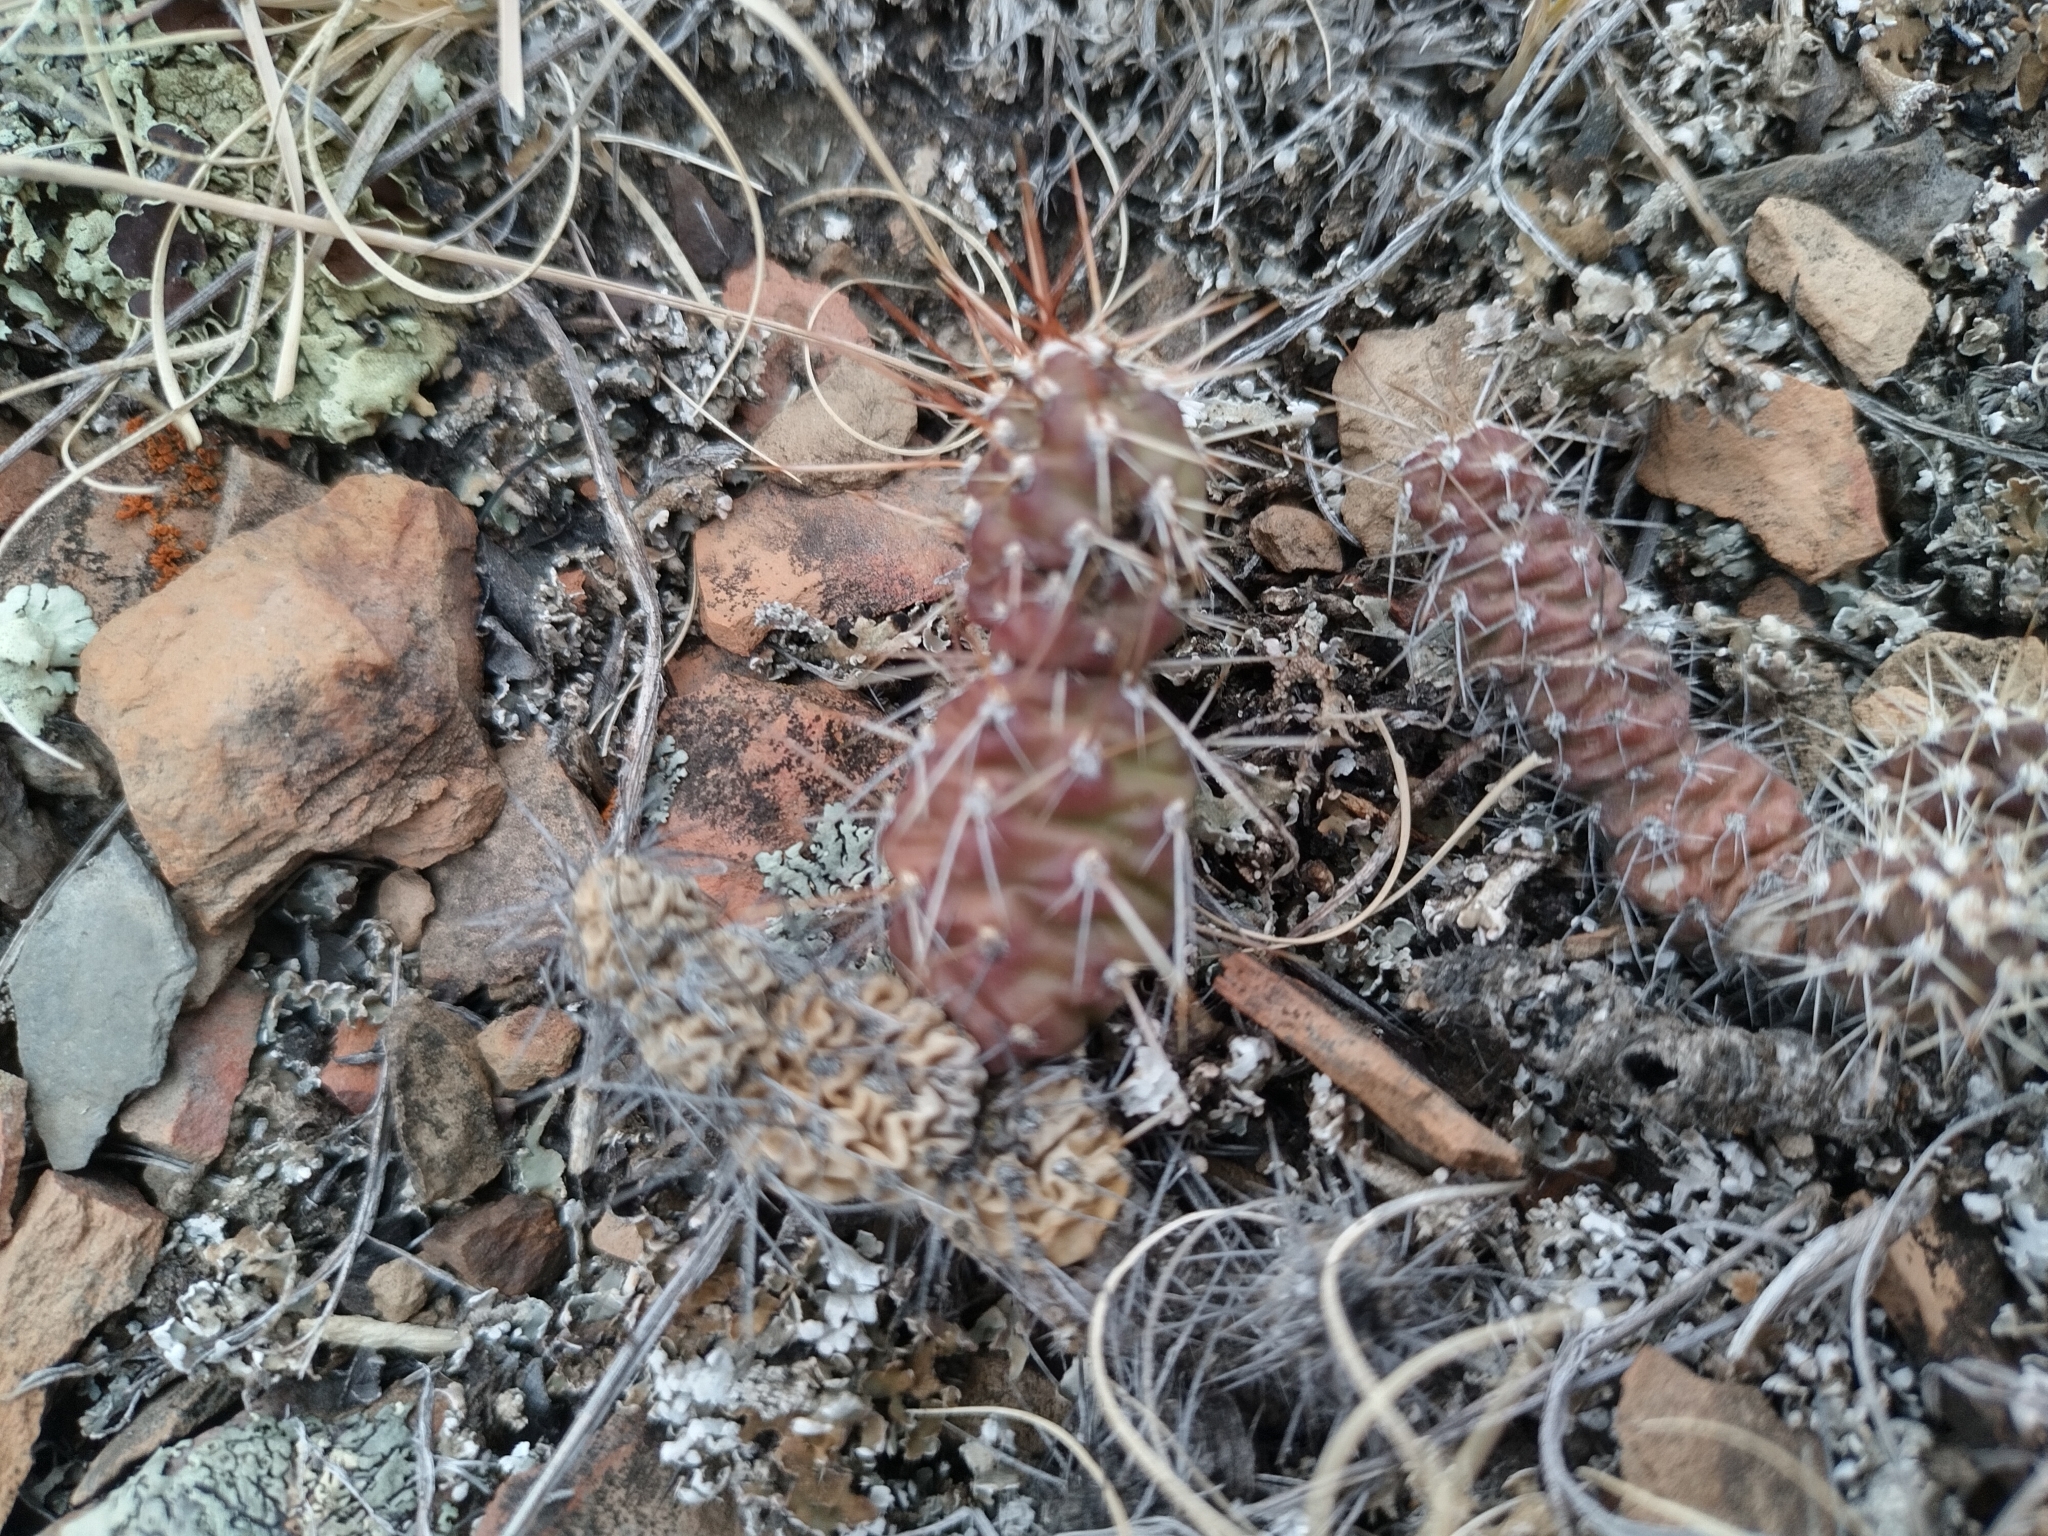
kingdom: Plantae
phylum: Tracheophyta
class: Magnoliopsida
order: Caryophyllales
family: Cactaceae
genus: Opuntia
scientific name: Opuntia fragilis
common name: Brittle cactus
